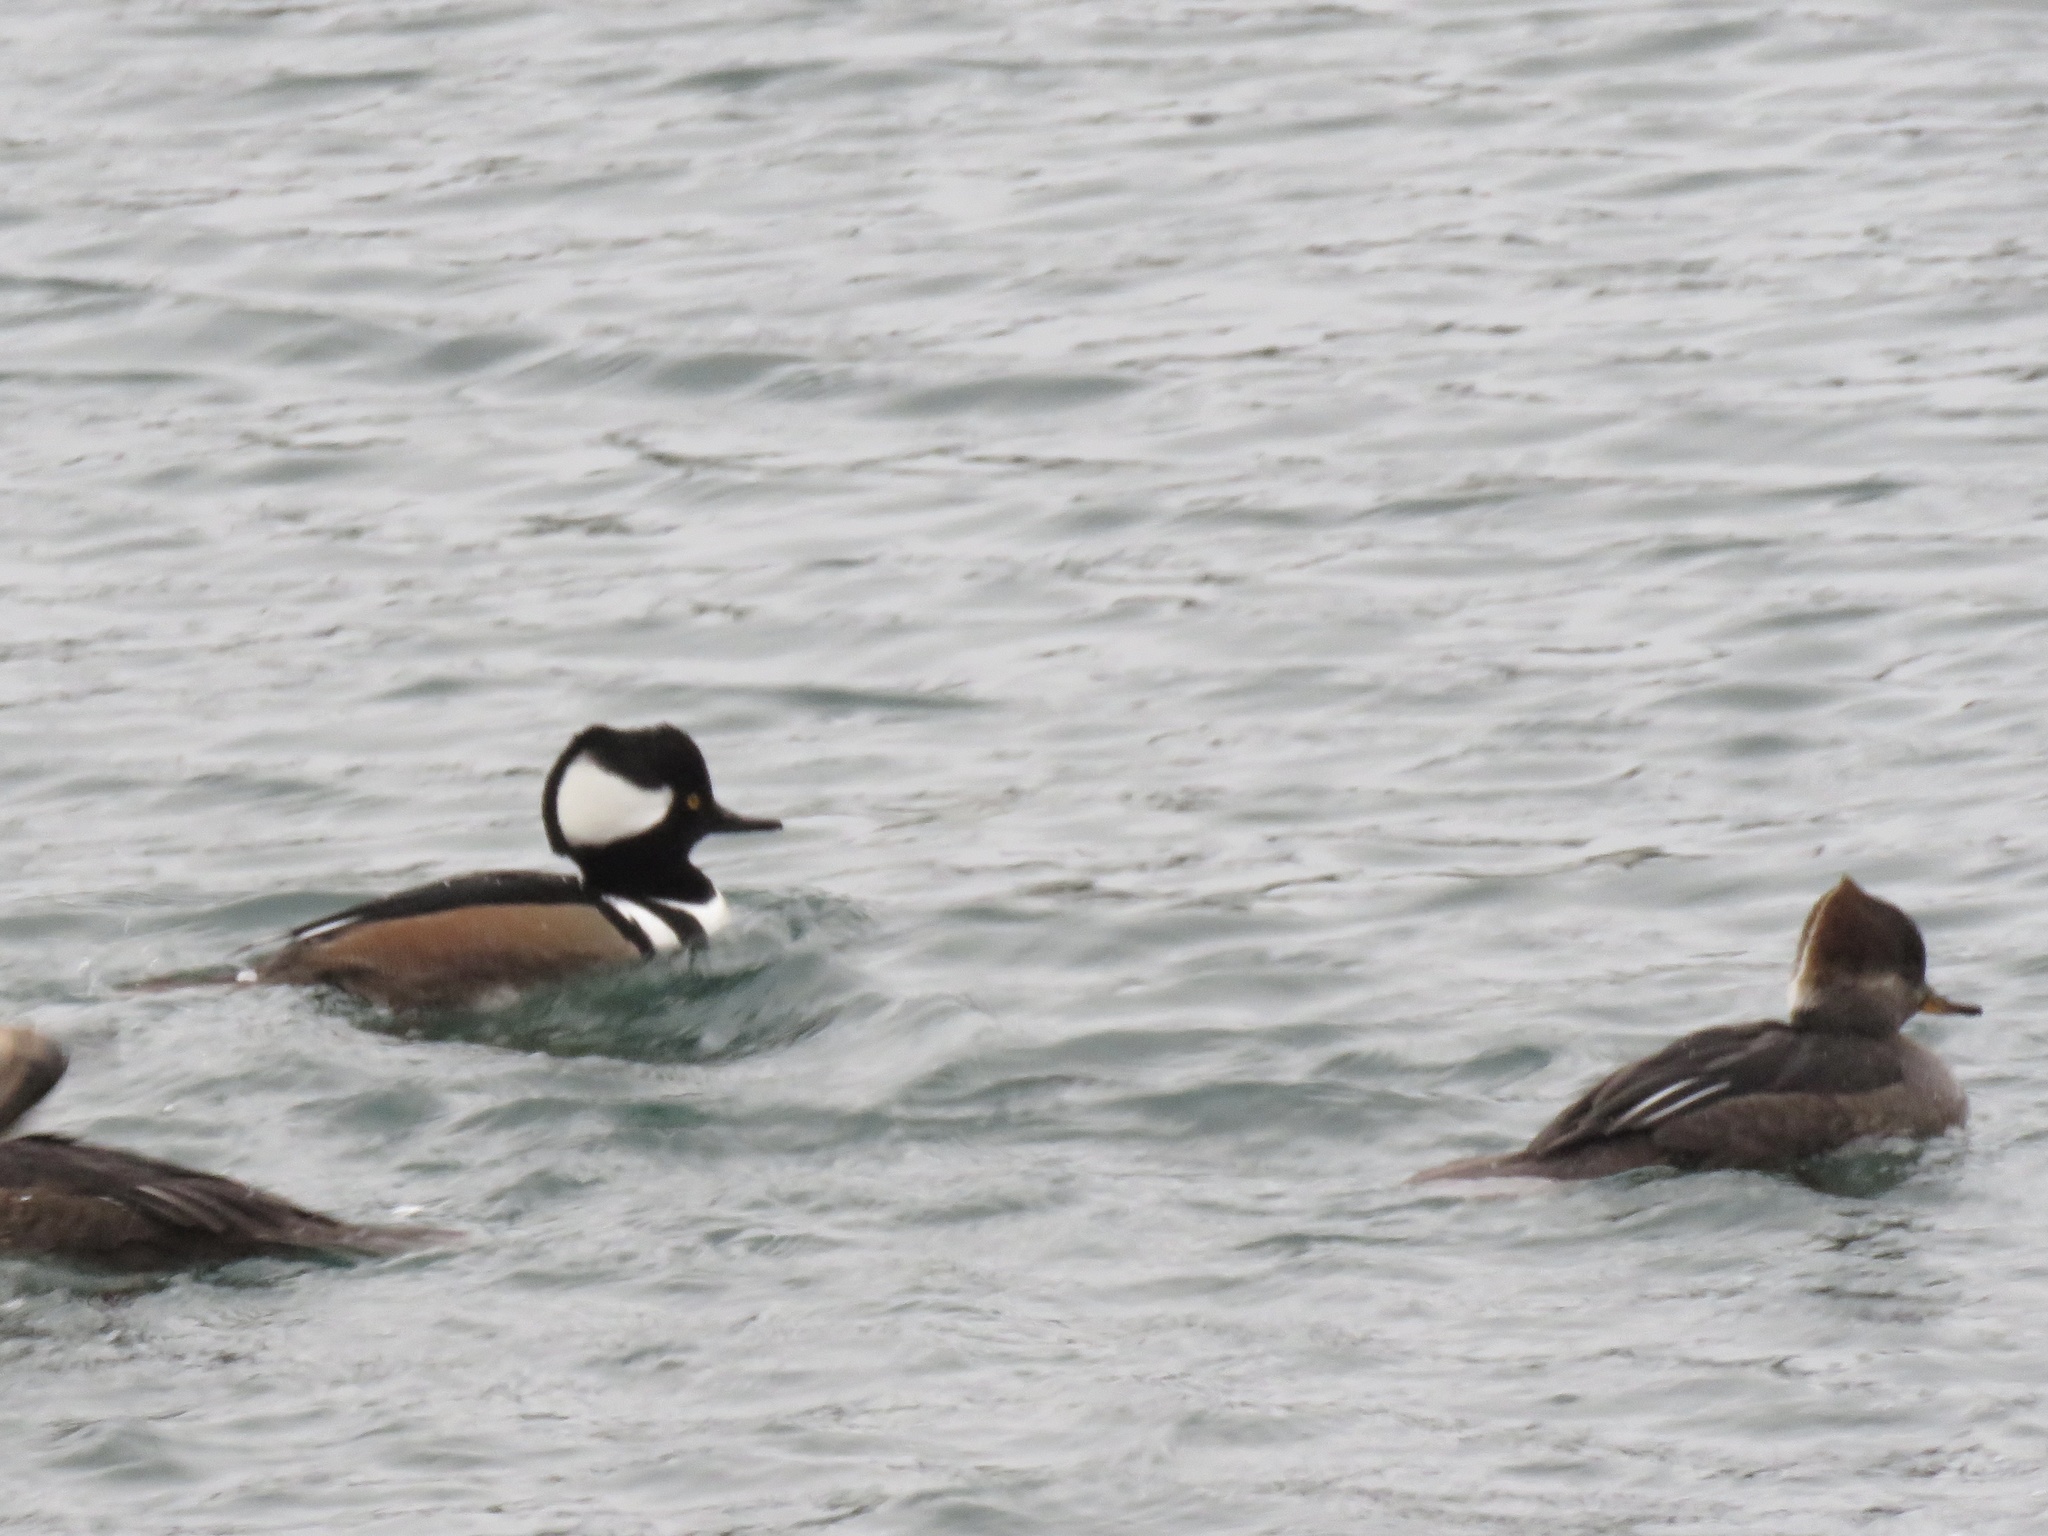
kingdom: Animalia
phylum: Chordata
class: Aves
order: Anseriformes
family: Anatidae
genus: Lophodytes
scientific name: Lophodytes cucullatus
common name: Hooded merganser
